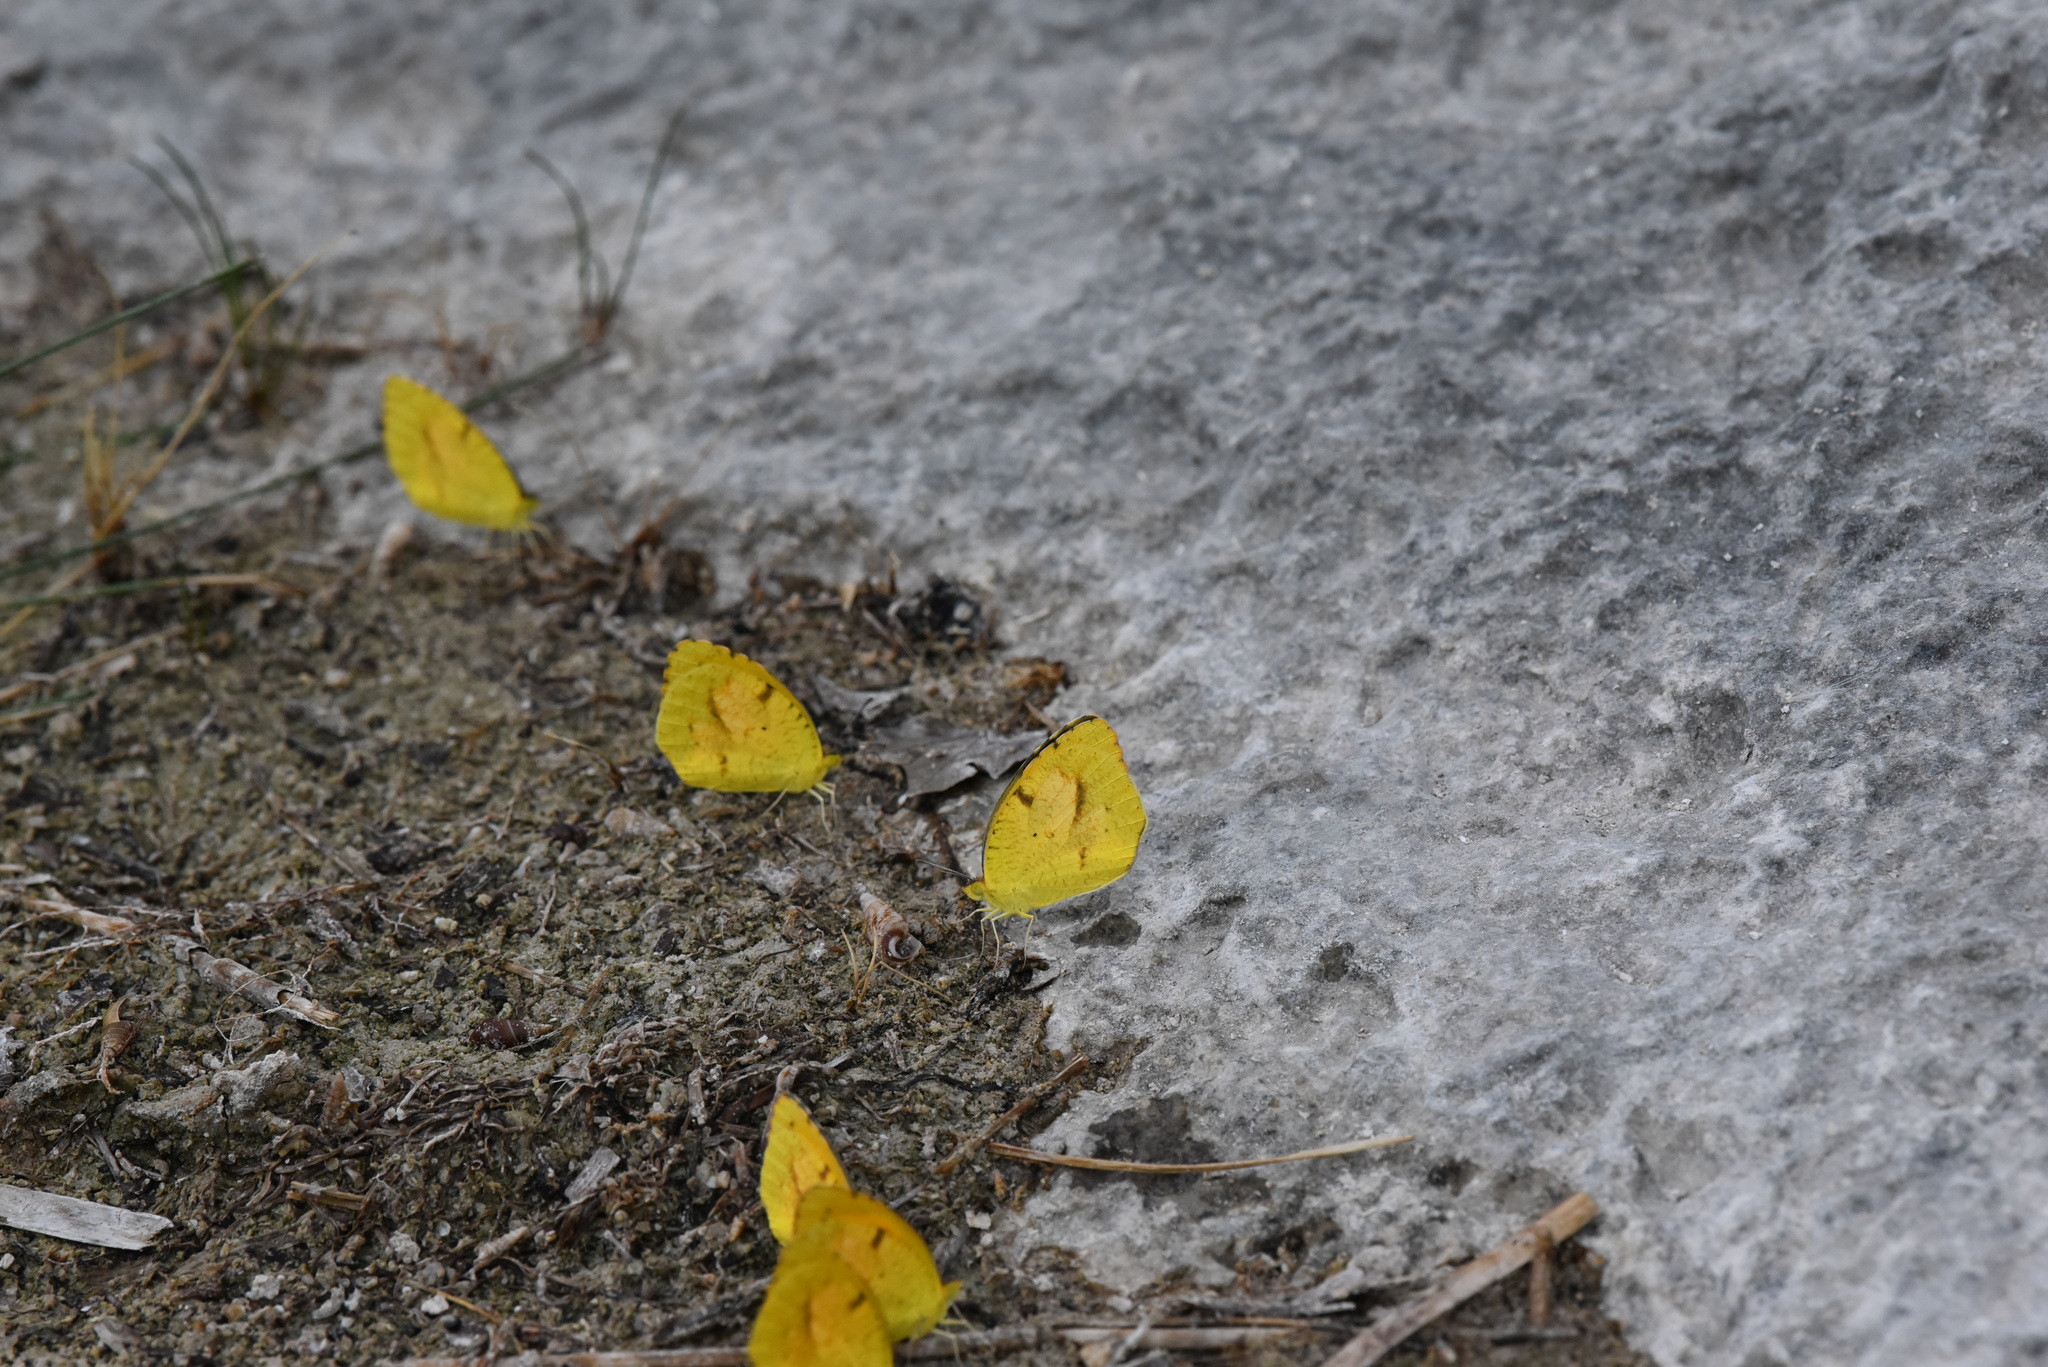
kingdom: Animalia
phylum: Arthropoda
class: Insecta
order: Lepidoptera
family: Pieridae
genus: Abaeis
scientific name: Abaeis nicippe
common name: Sleepy orange
